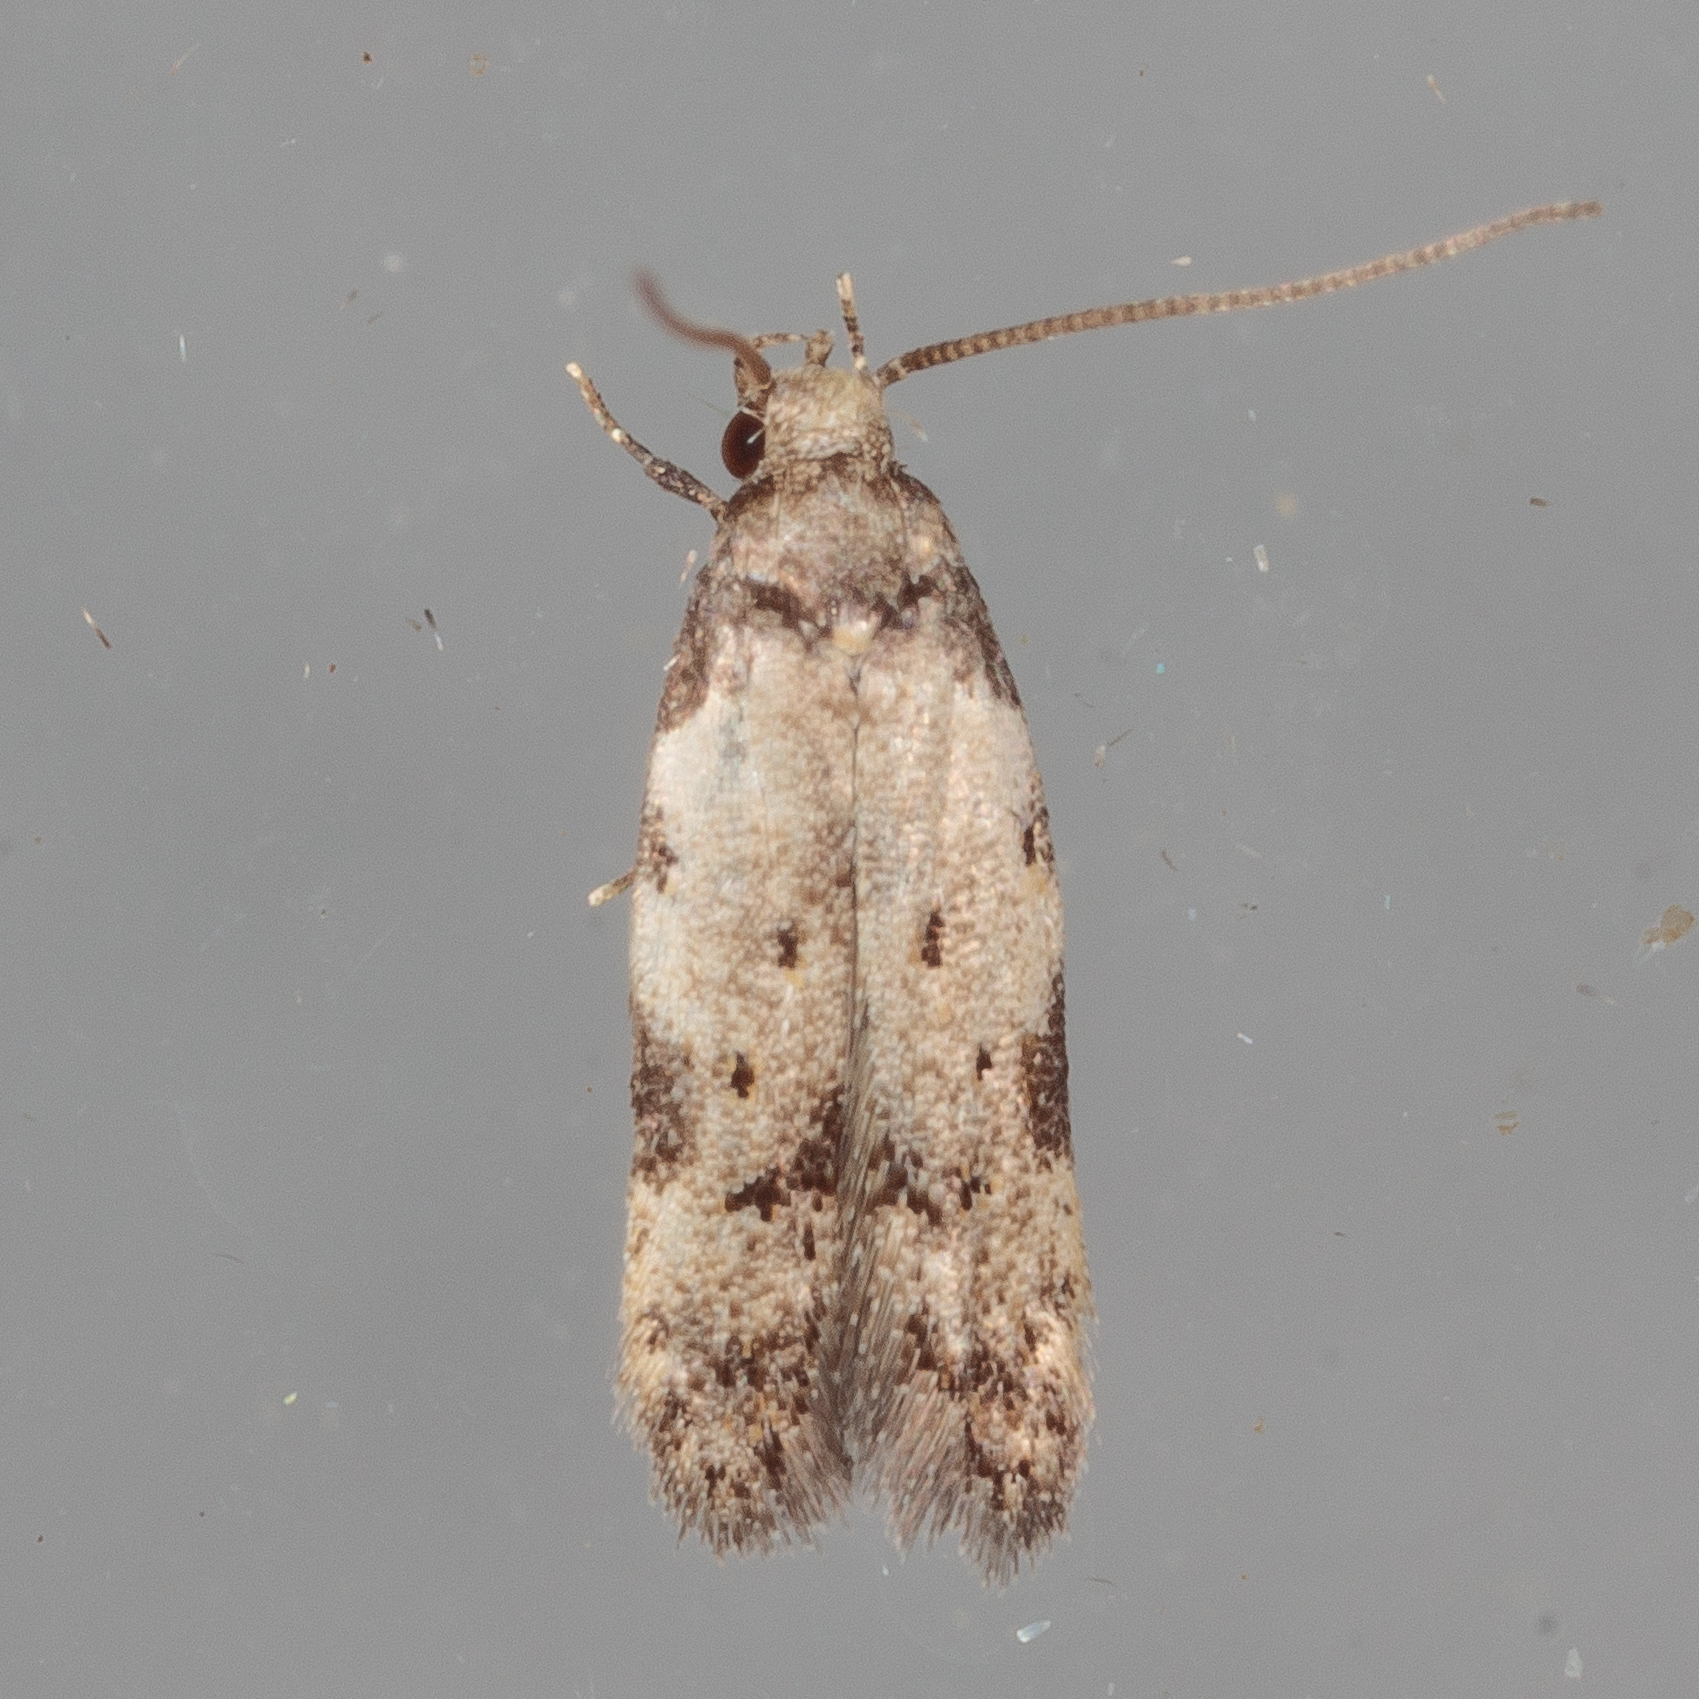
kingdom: Animalia
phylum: Arthropoda
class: Insecta
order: Lepidoptera
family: Autostichidae
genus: Taygete
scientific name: Taygete attributella
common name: Triangle-marked twirler moth
